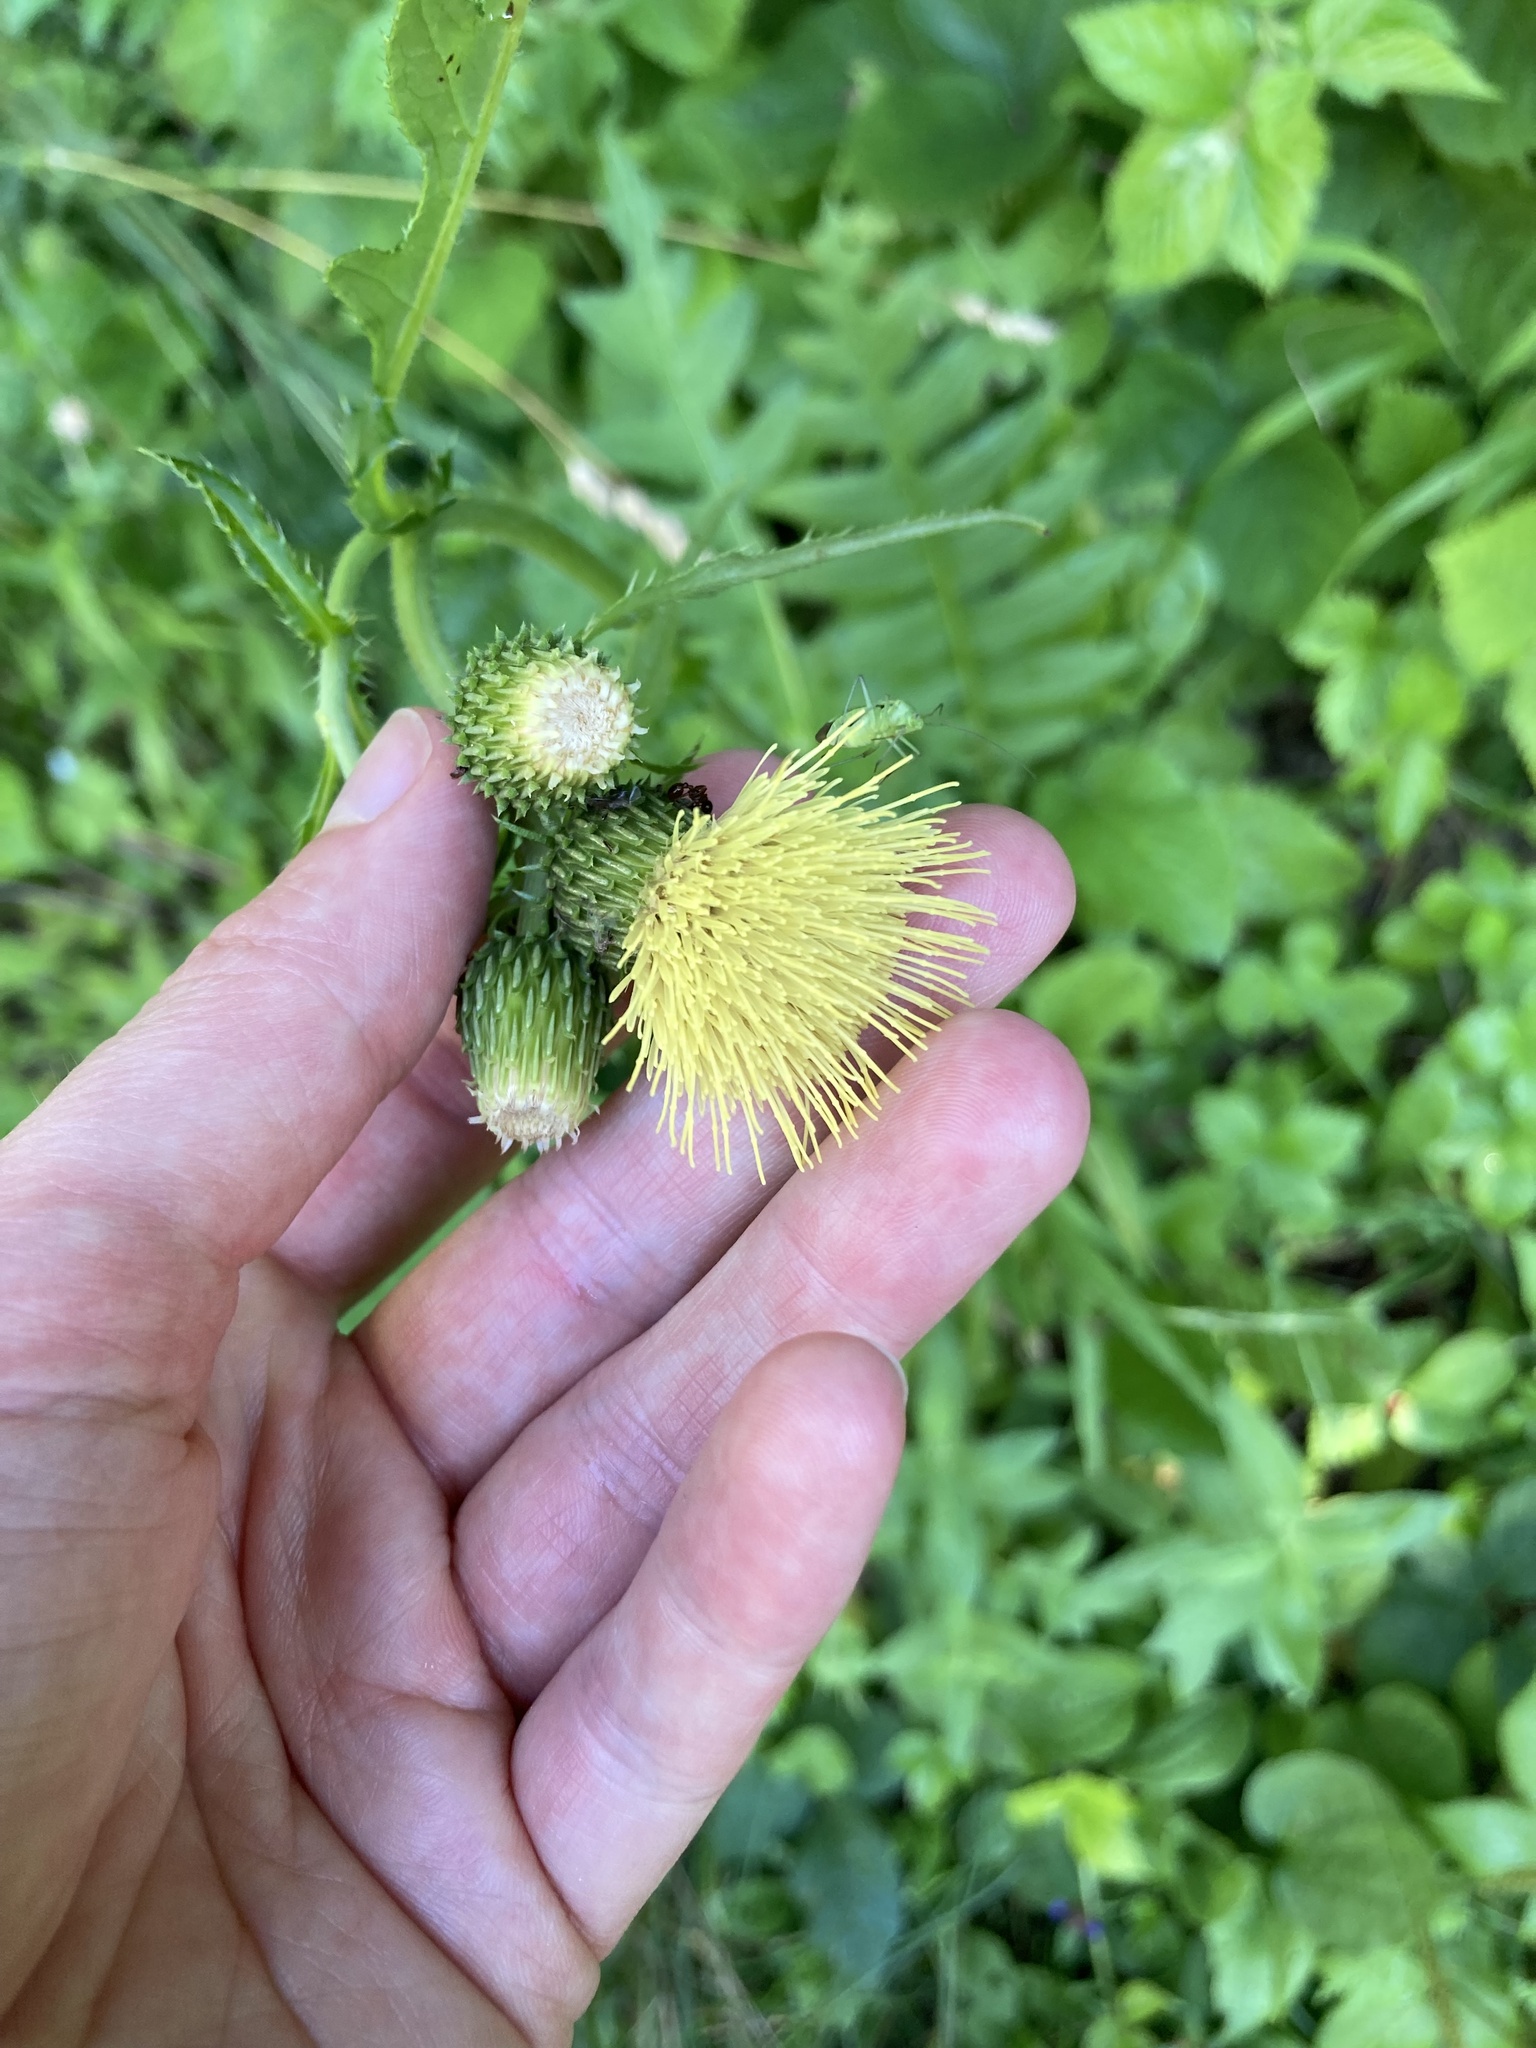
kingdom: Plantae
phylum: Tracheophyta
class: Magnoliopsida
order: Asterales
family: Asteraceae
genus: Cirsium
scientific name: Cirsium erisithales
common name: Yellow thistle
